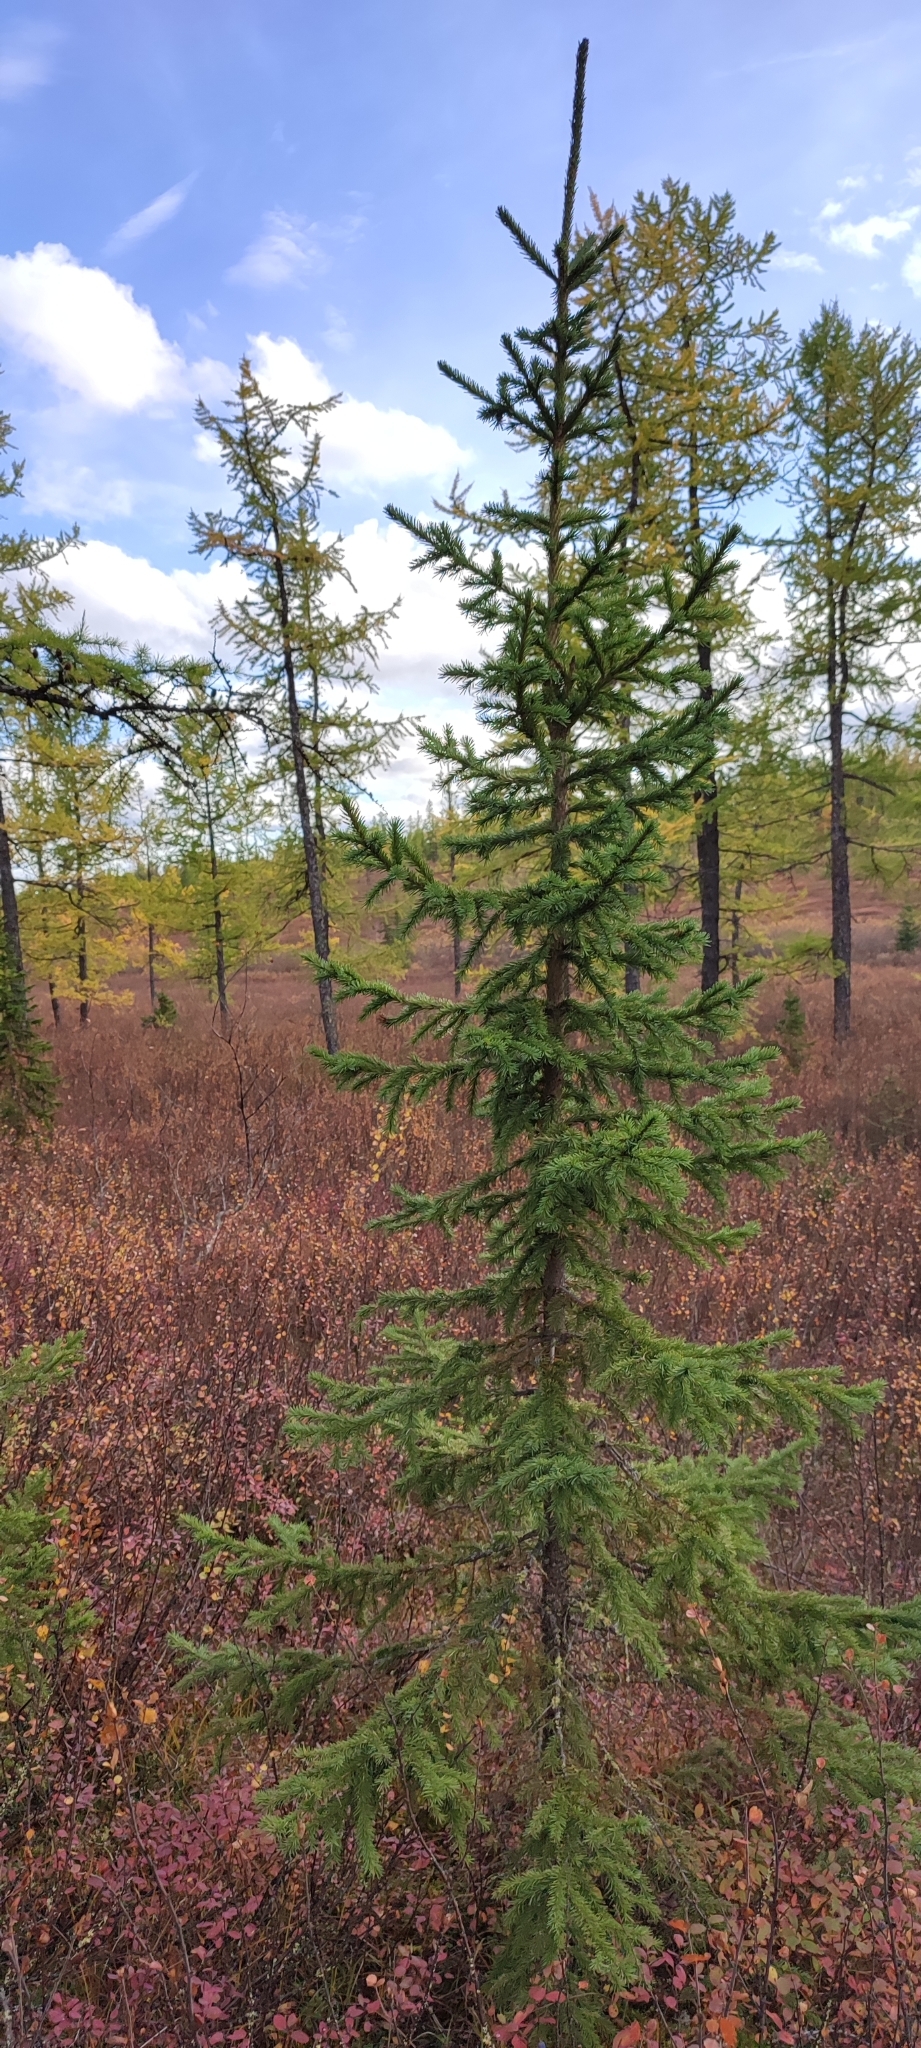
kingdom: Plantae
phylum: Tracheophyta
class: Pinopsida
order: Pinales
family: Pinaceae
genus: Picea
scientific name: Picea obovata
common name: Siberian spruce
